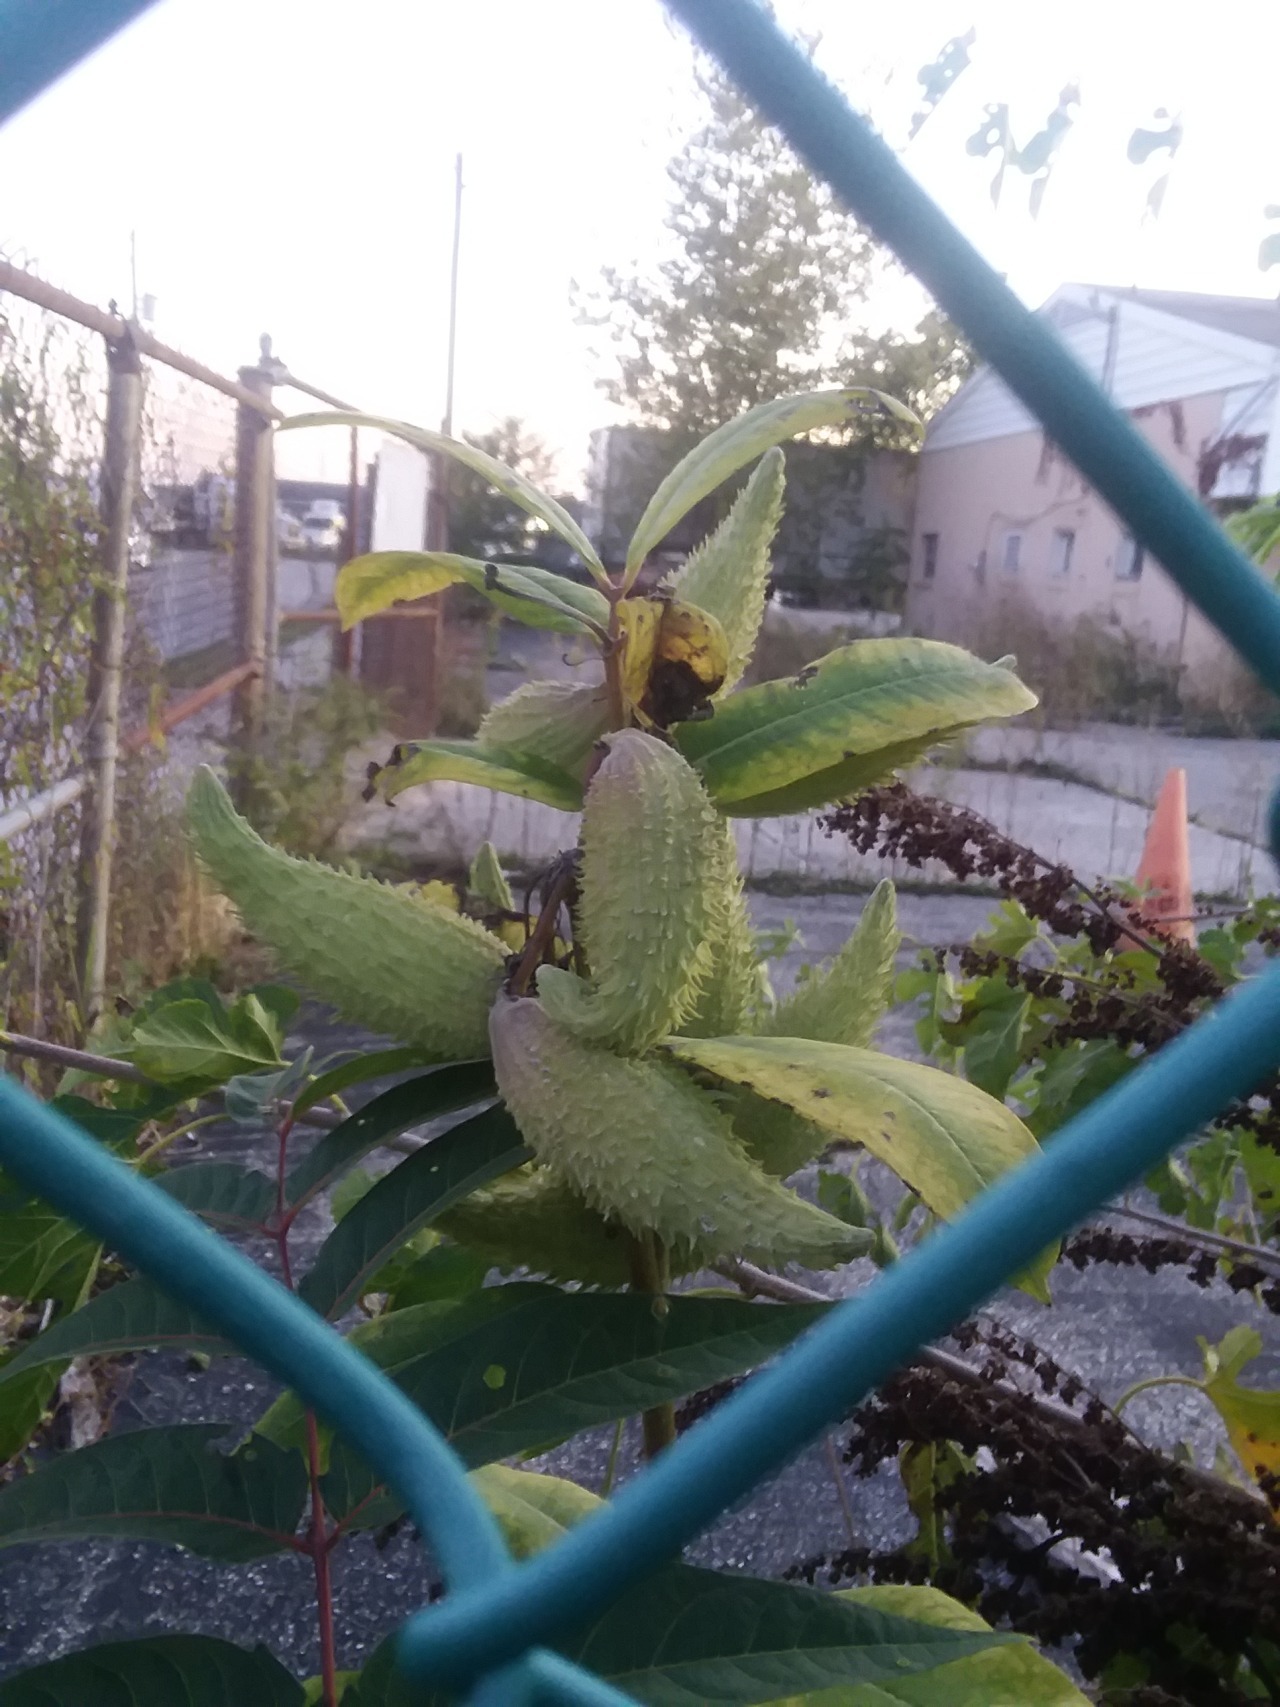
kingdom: Plantae
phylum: Tracheophyta
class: Magnoliopsida
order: Gentianales
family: Apocynaceae
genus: Asclepias
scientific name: Asclepias syriaca
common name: Common milkweed
